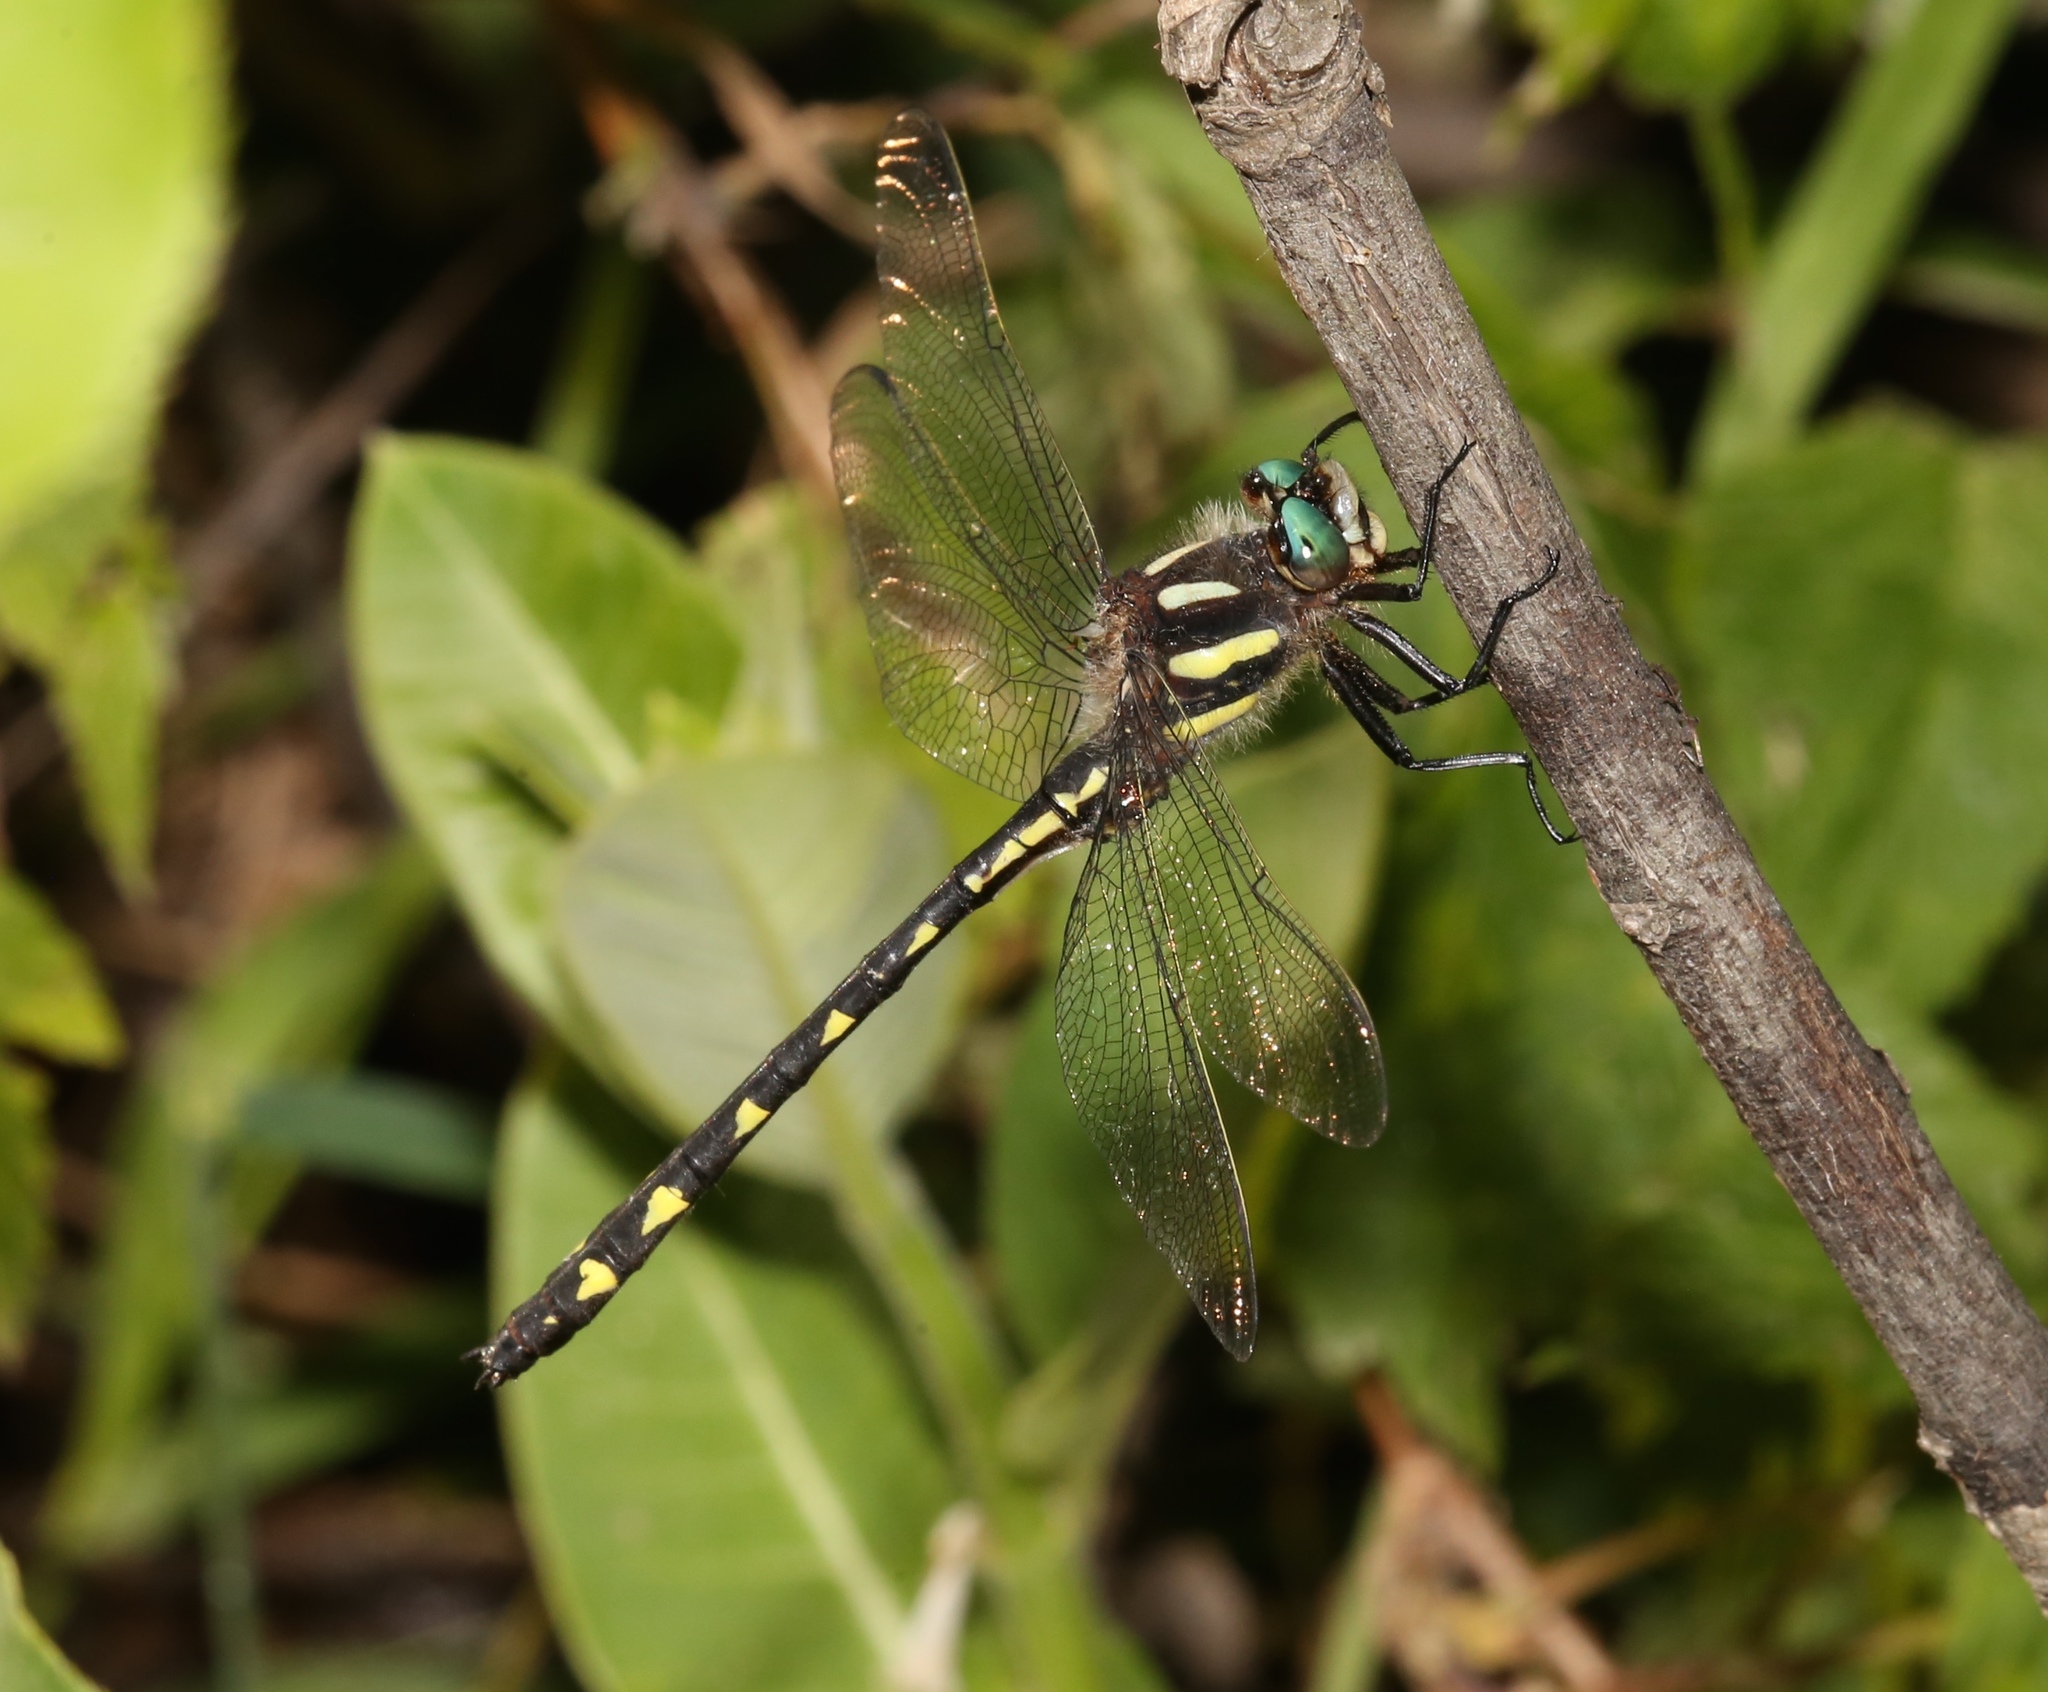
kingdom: Animalia
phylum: Arthropoda
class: Insecta
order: Odonata
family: Cordulegastridae
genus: Cordulegaster
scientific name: Cordulegaster diastatops
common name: Delta-spotted spiketail
